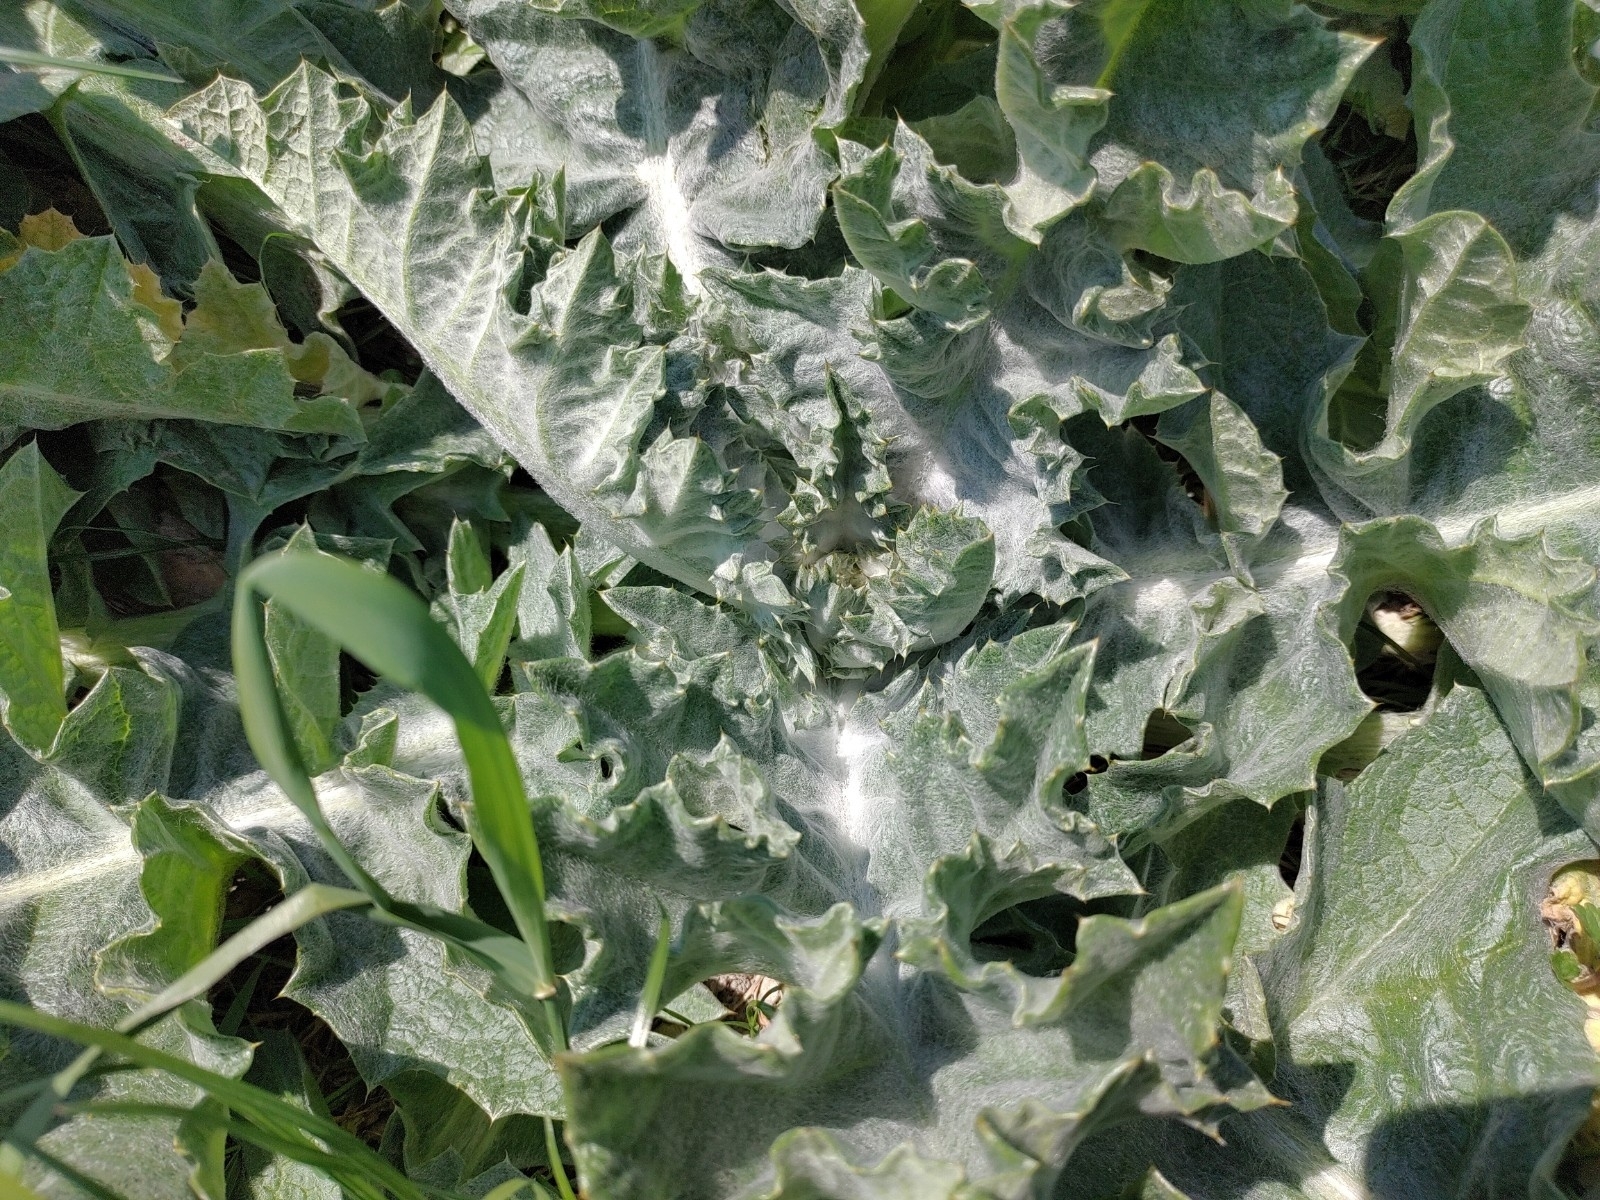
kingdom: Plantae
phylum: Tracheophyta
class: Magnoliopsida
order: Asterales
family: Asteraceae
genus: Onopordum
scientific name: Onopordum acanthium
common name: Scotch thistle
